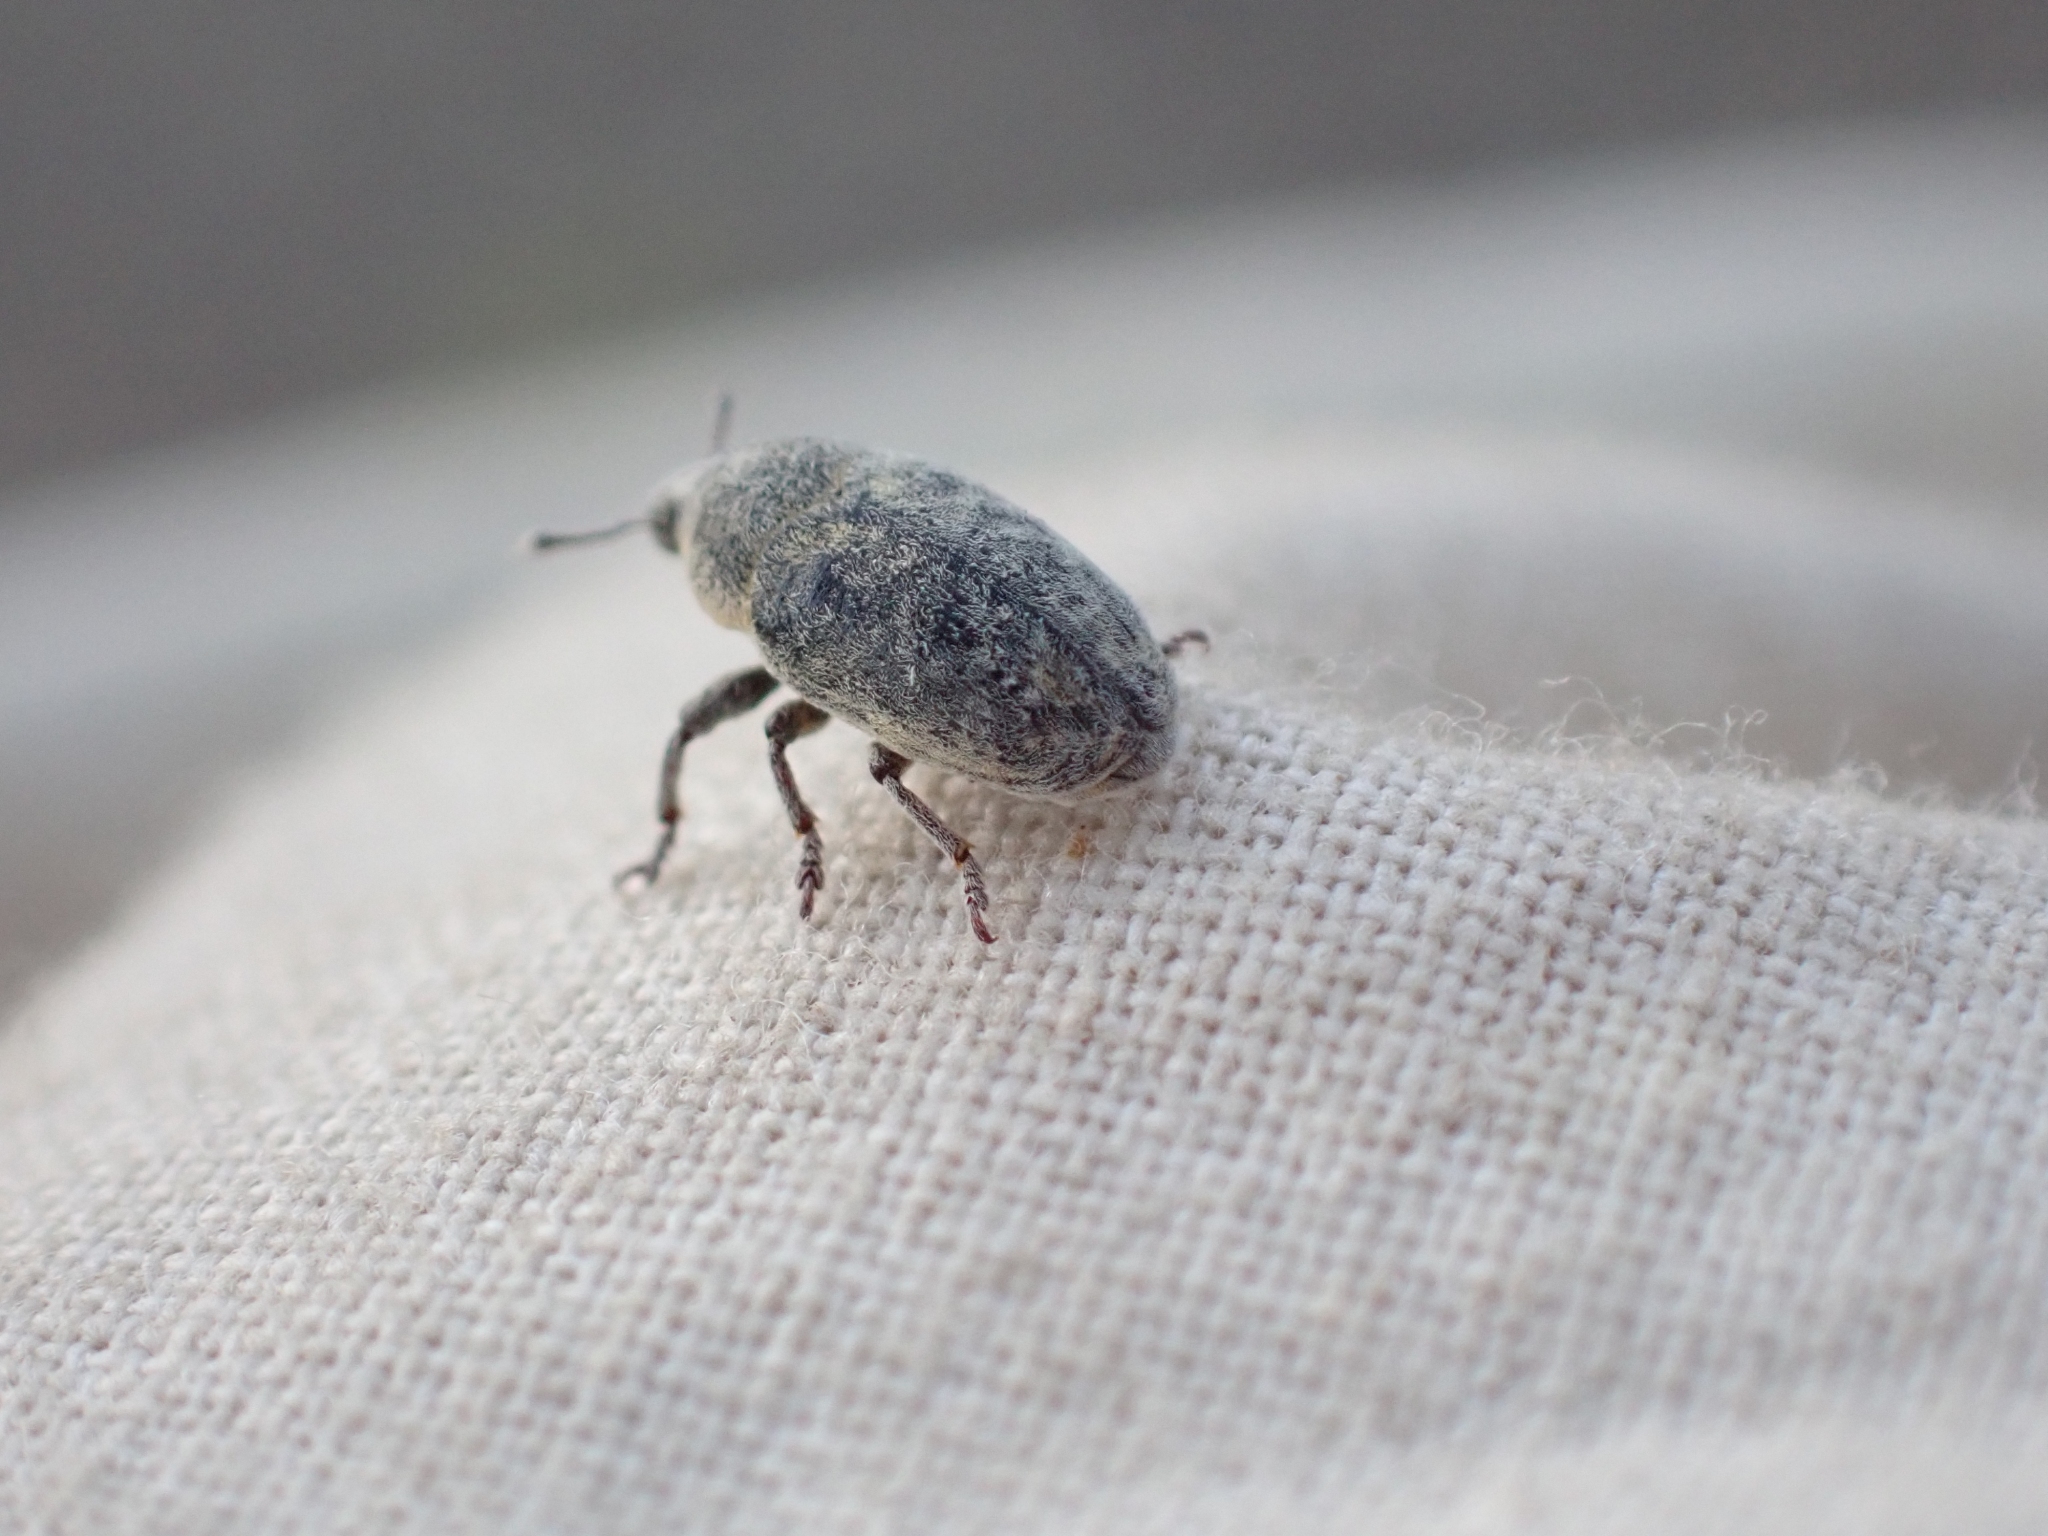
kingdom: Animalia
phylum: Arthropoda
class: Insecta
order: Coleoptera
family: Curculionidae
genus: Larinus
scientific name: Larinus minutus
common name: Weevil
